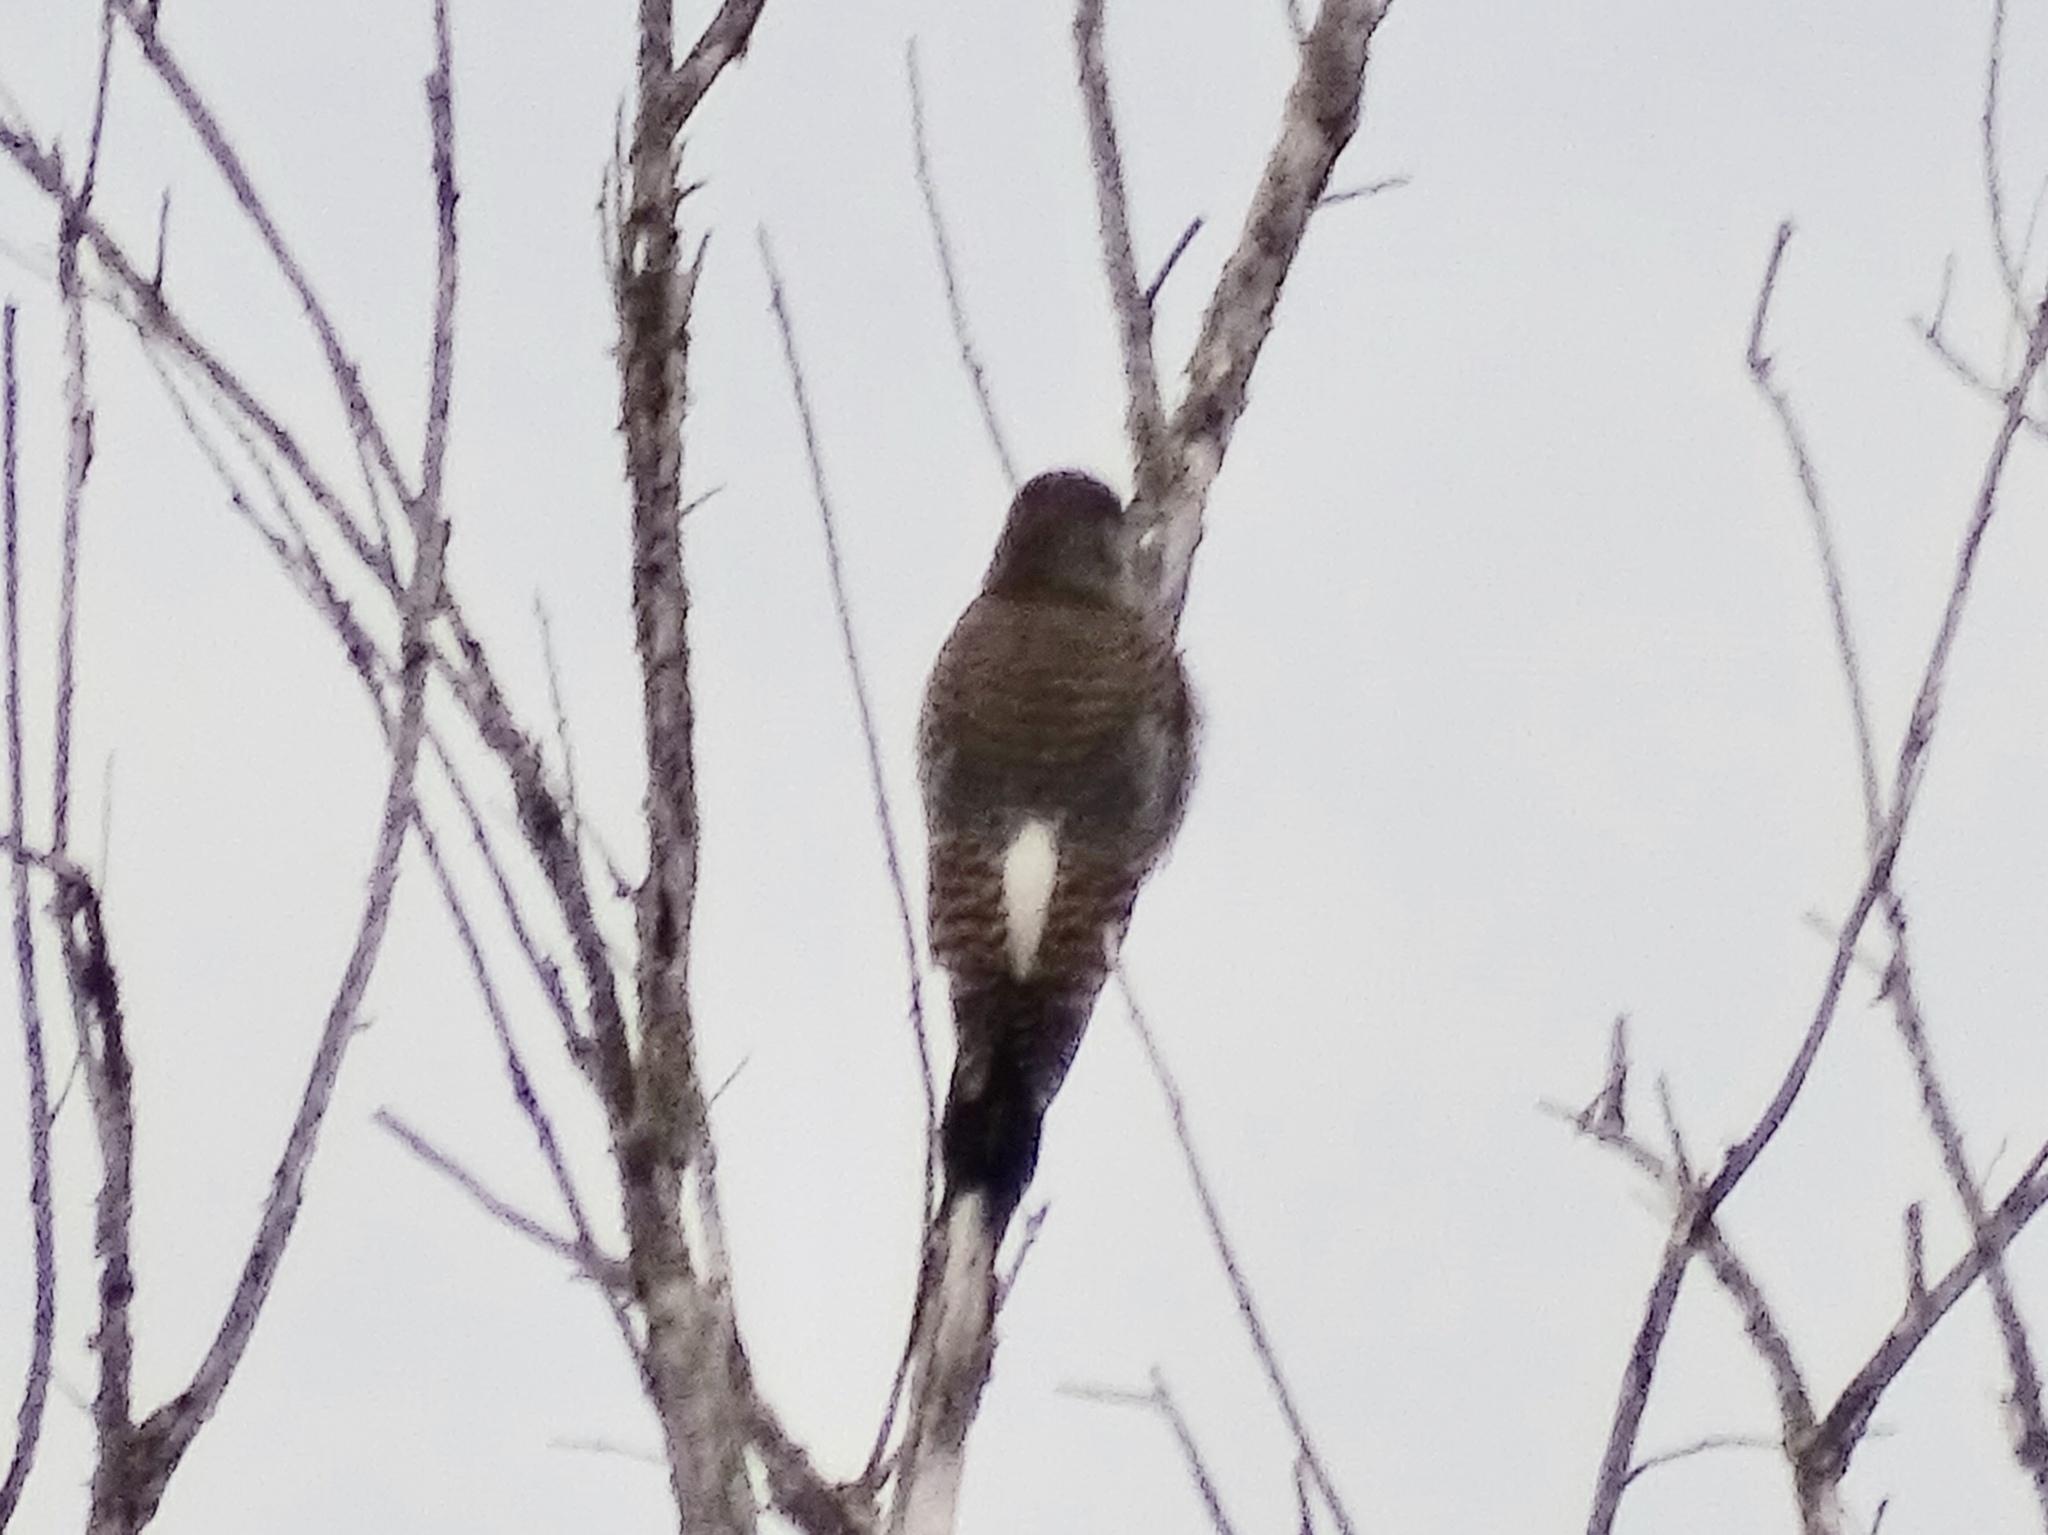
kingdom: Animalia
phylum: Chordata
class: Aves
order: Piciformes
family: Picidae
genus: Colaptes
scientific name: Colaptes auratus
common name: Northern flicker
